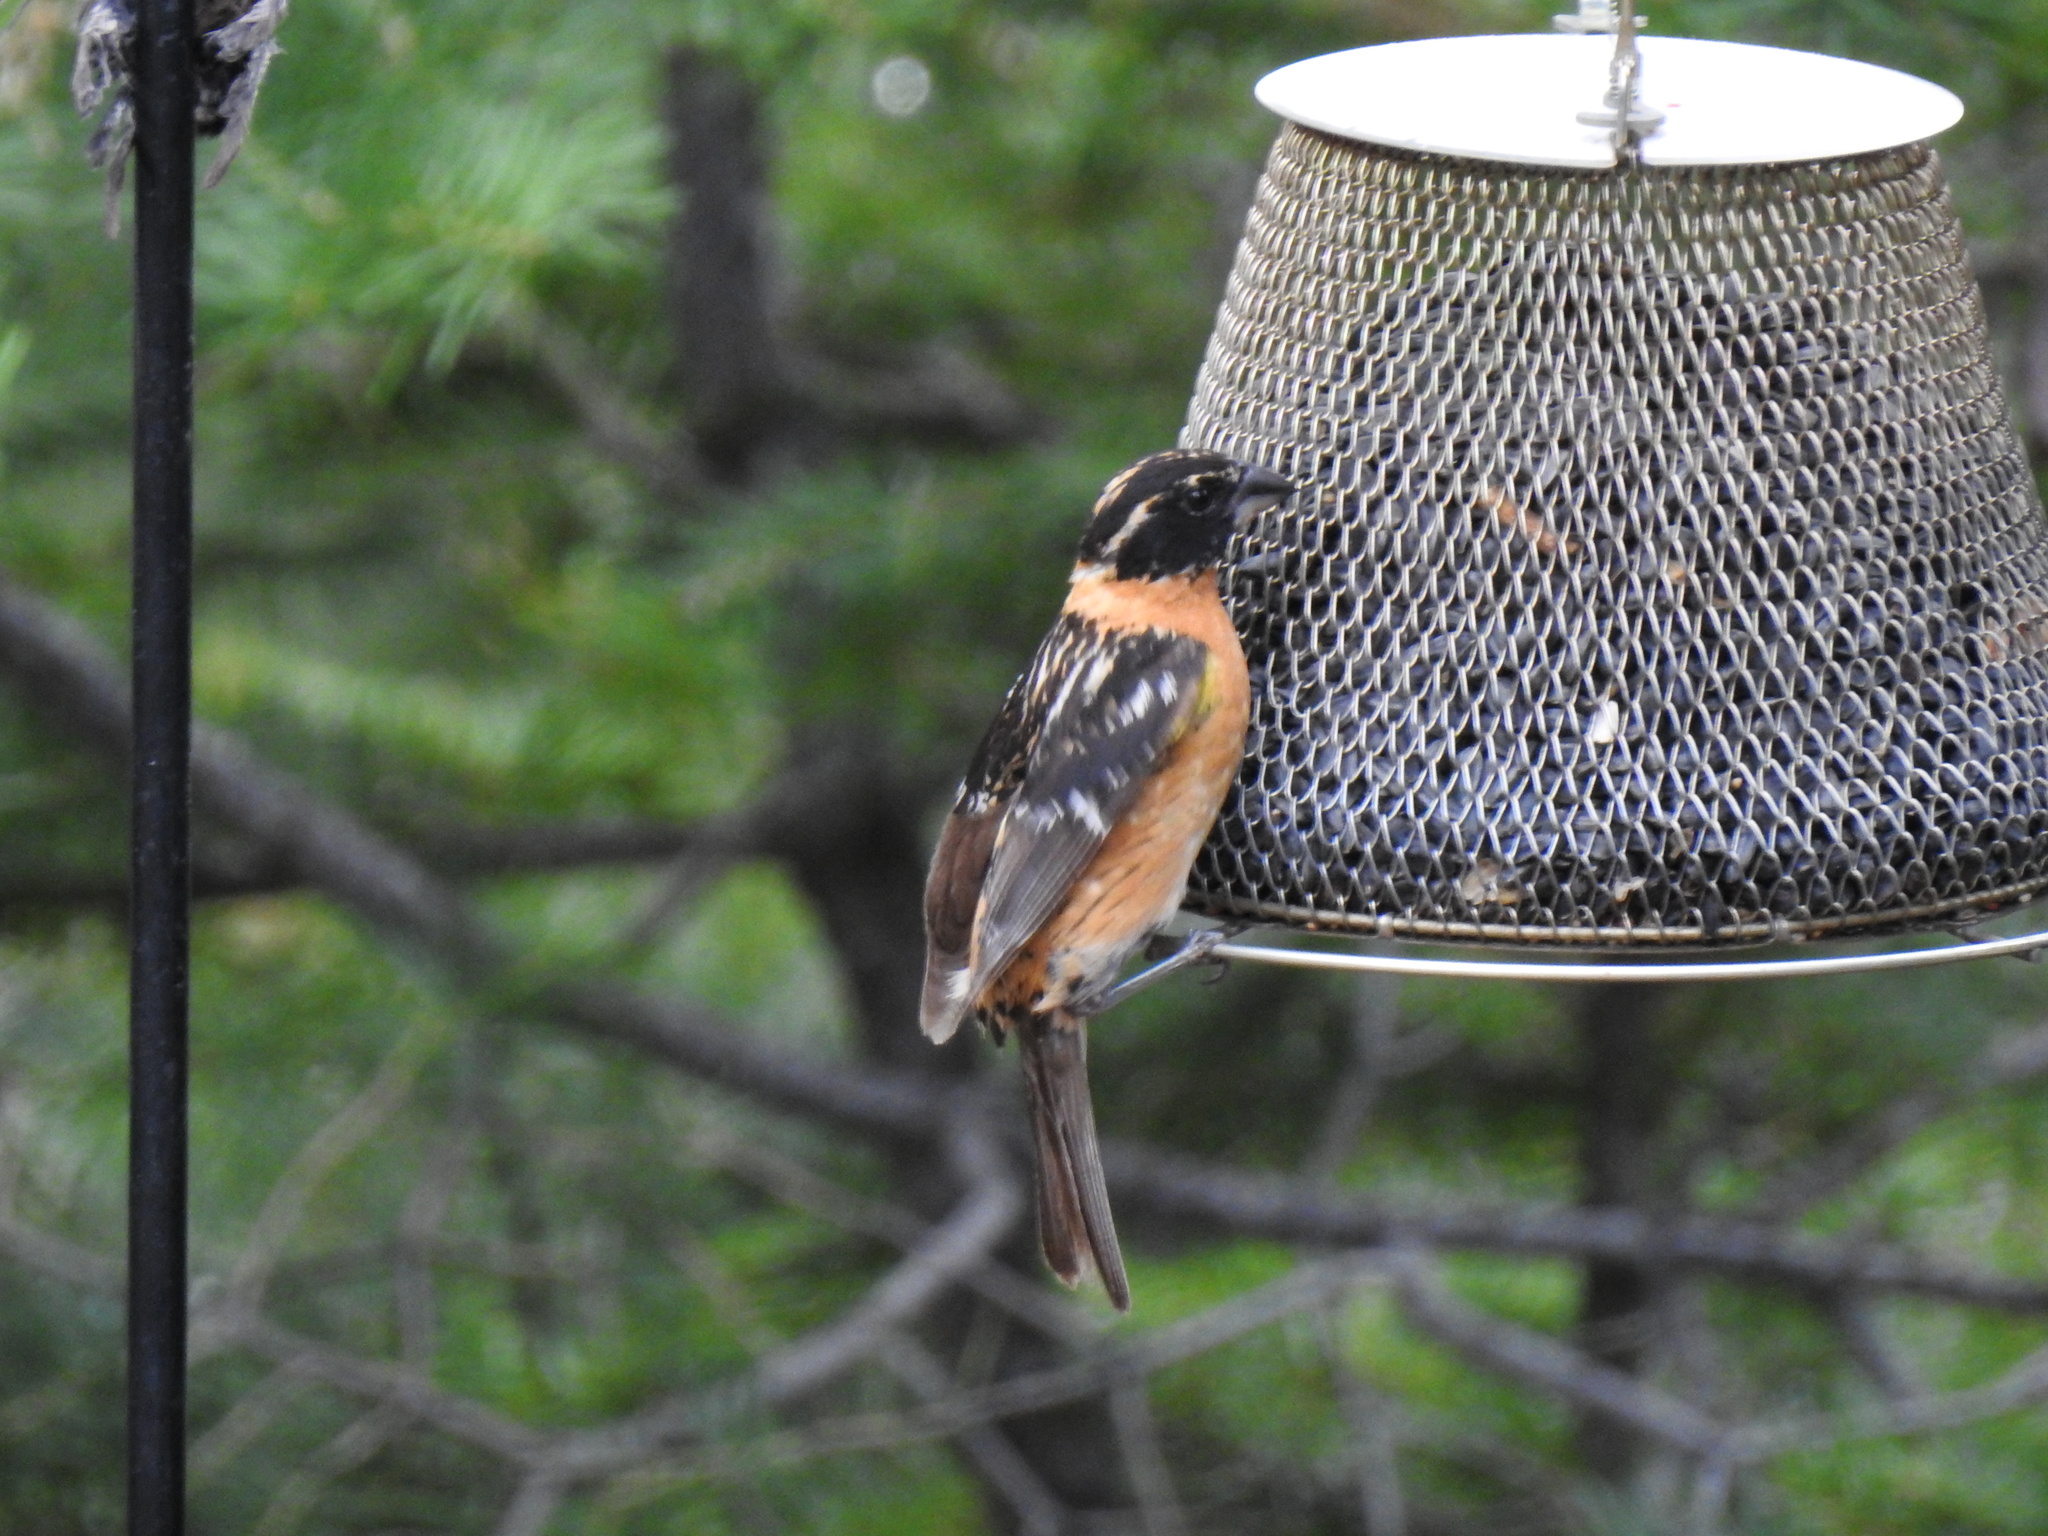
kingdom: Animalia
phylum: Chordata
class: Aves
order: Passeriformes
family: Cardinalidae
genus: Pheucticus
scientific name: Pheucticus melanocephalus
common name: Black-headed grosbeak
